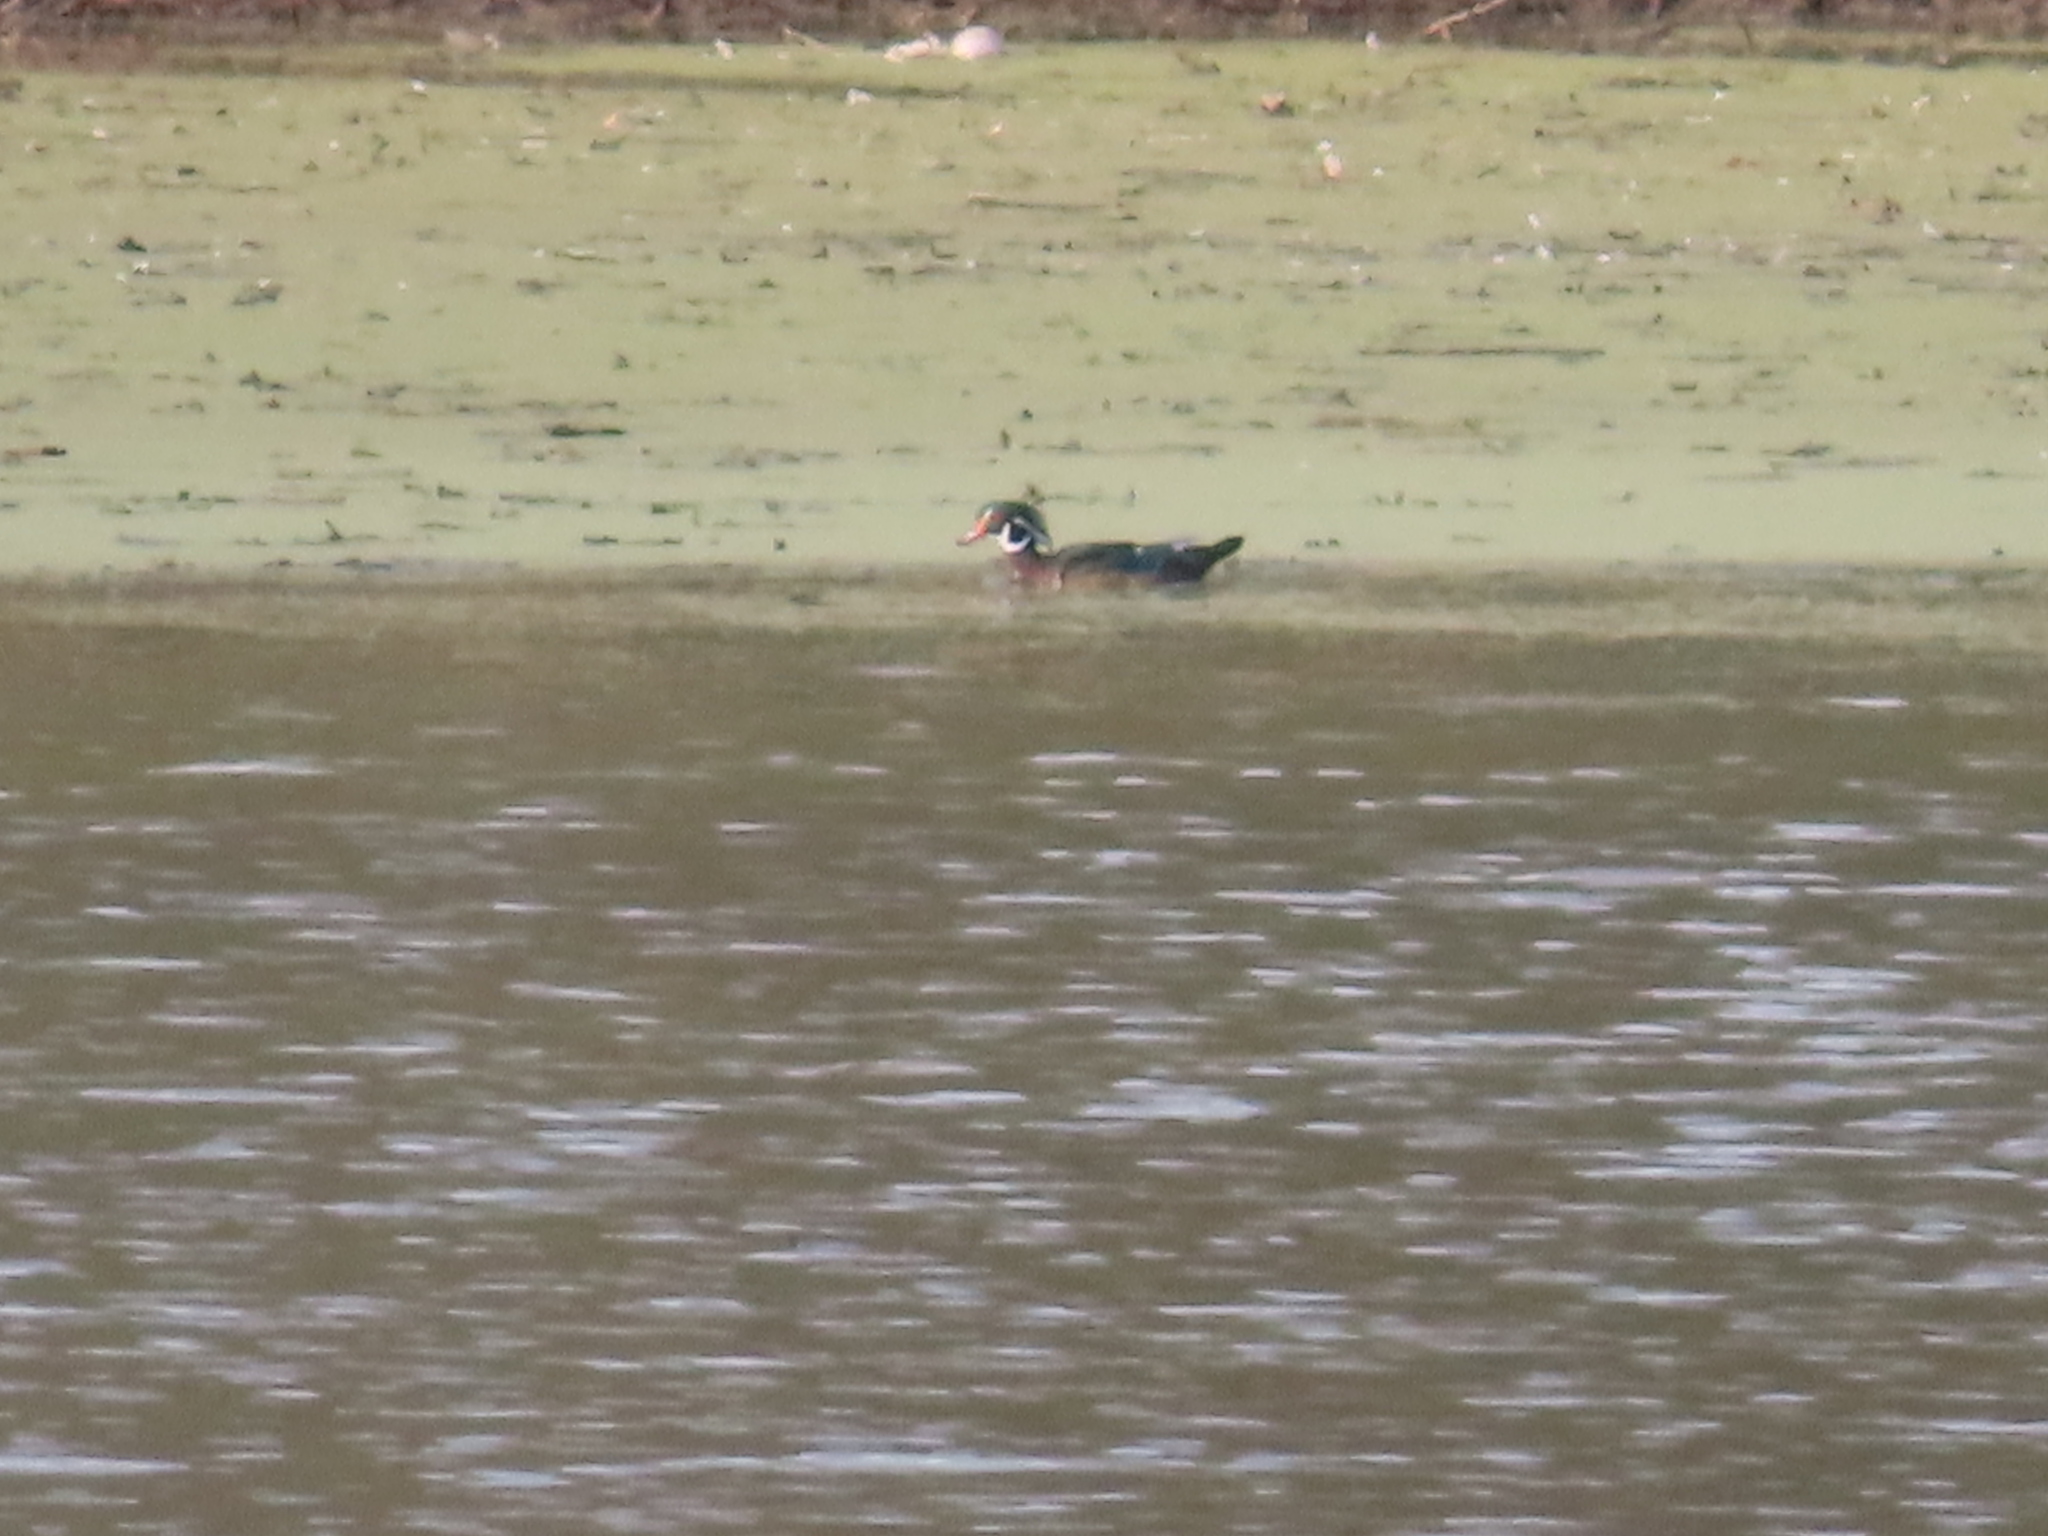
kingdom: Animalia
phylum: Chordata
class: Aves
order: Anseriformes
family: Anatidae
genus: Aix
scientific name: Aix sponsa
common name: Wood duck
